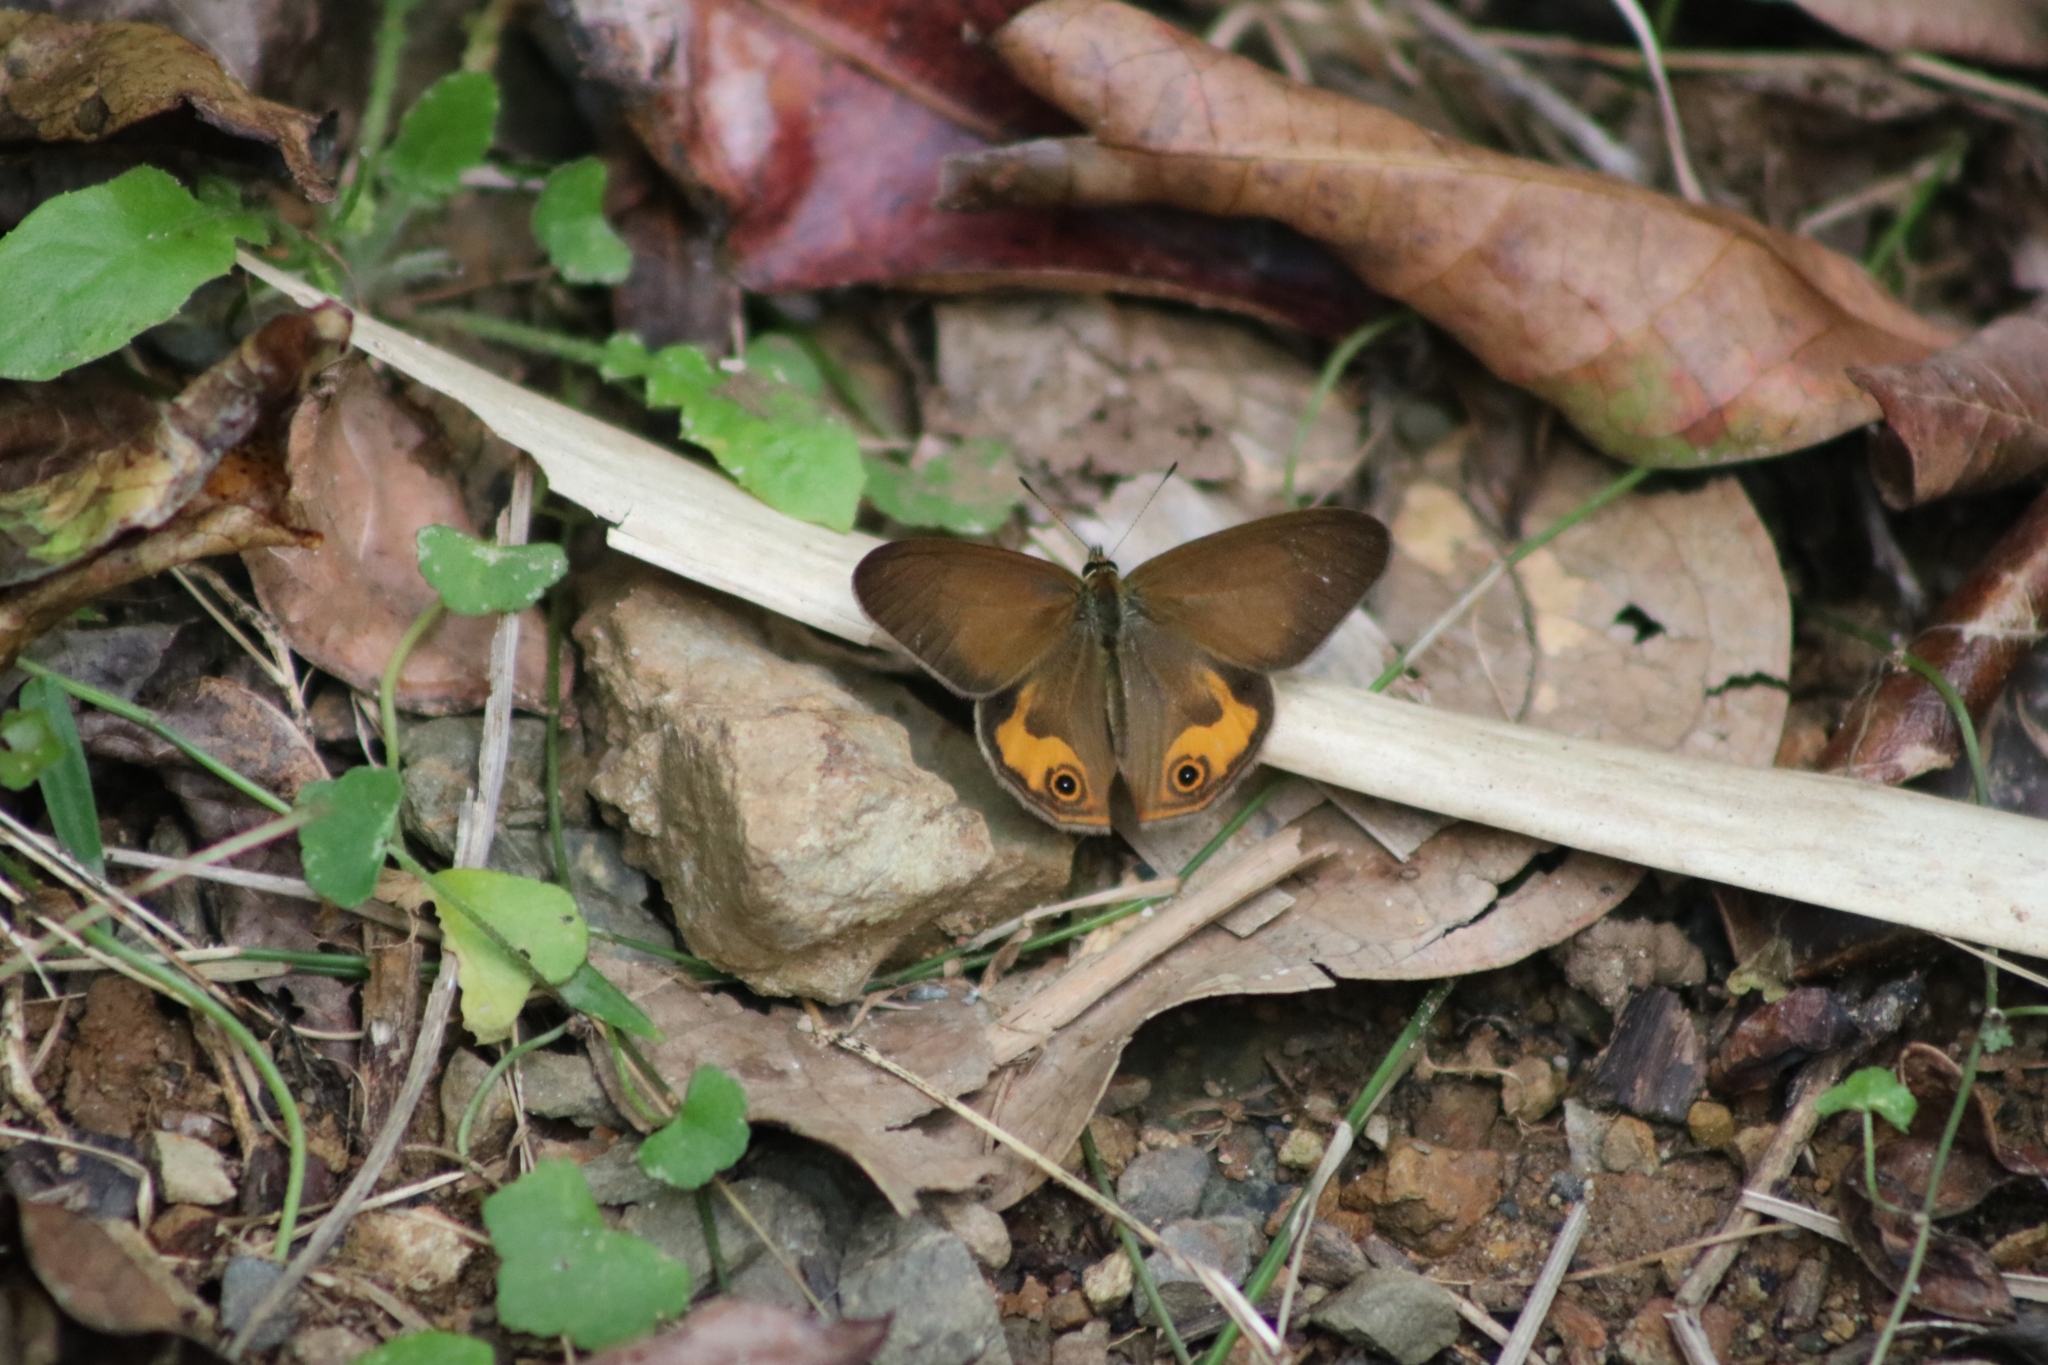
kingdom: Animalia
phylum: Arthropoda
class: Insecta
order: Lepidoptera
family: Nymphalidae
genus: Hypocysta
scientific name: Hypocysta metirius
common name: Brown ringlet
